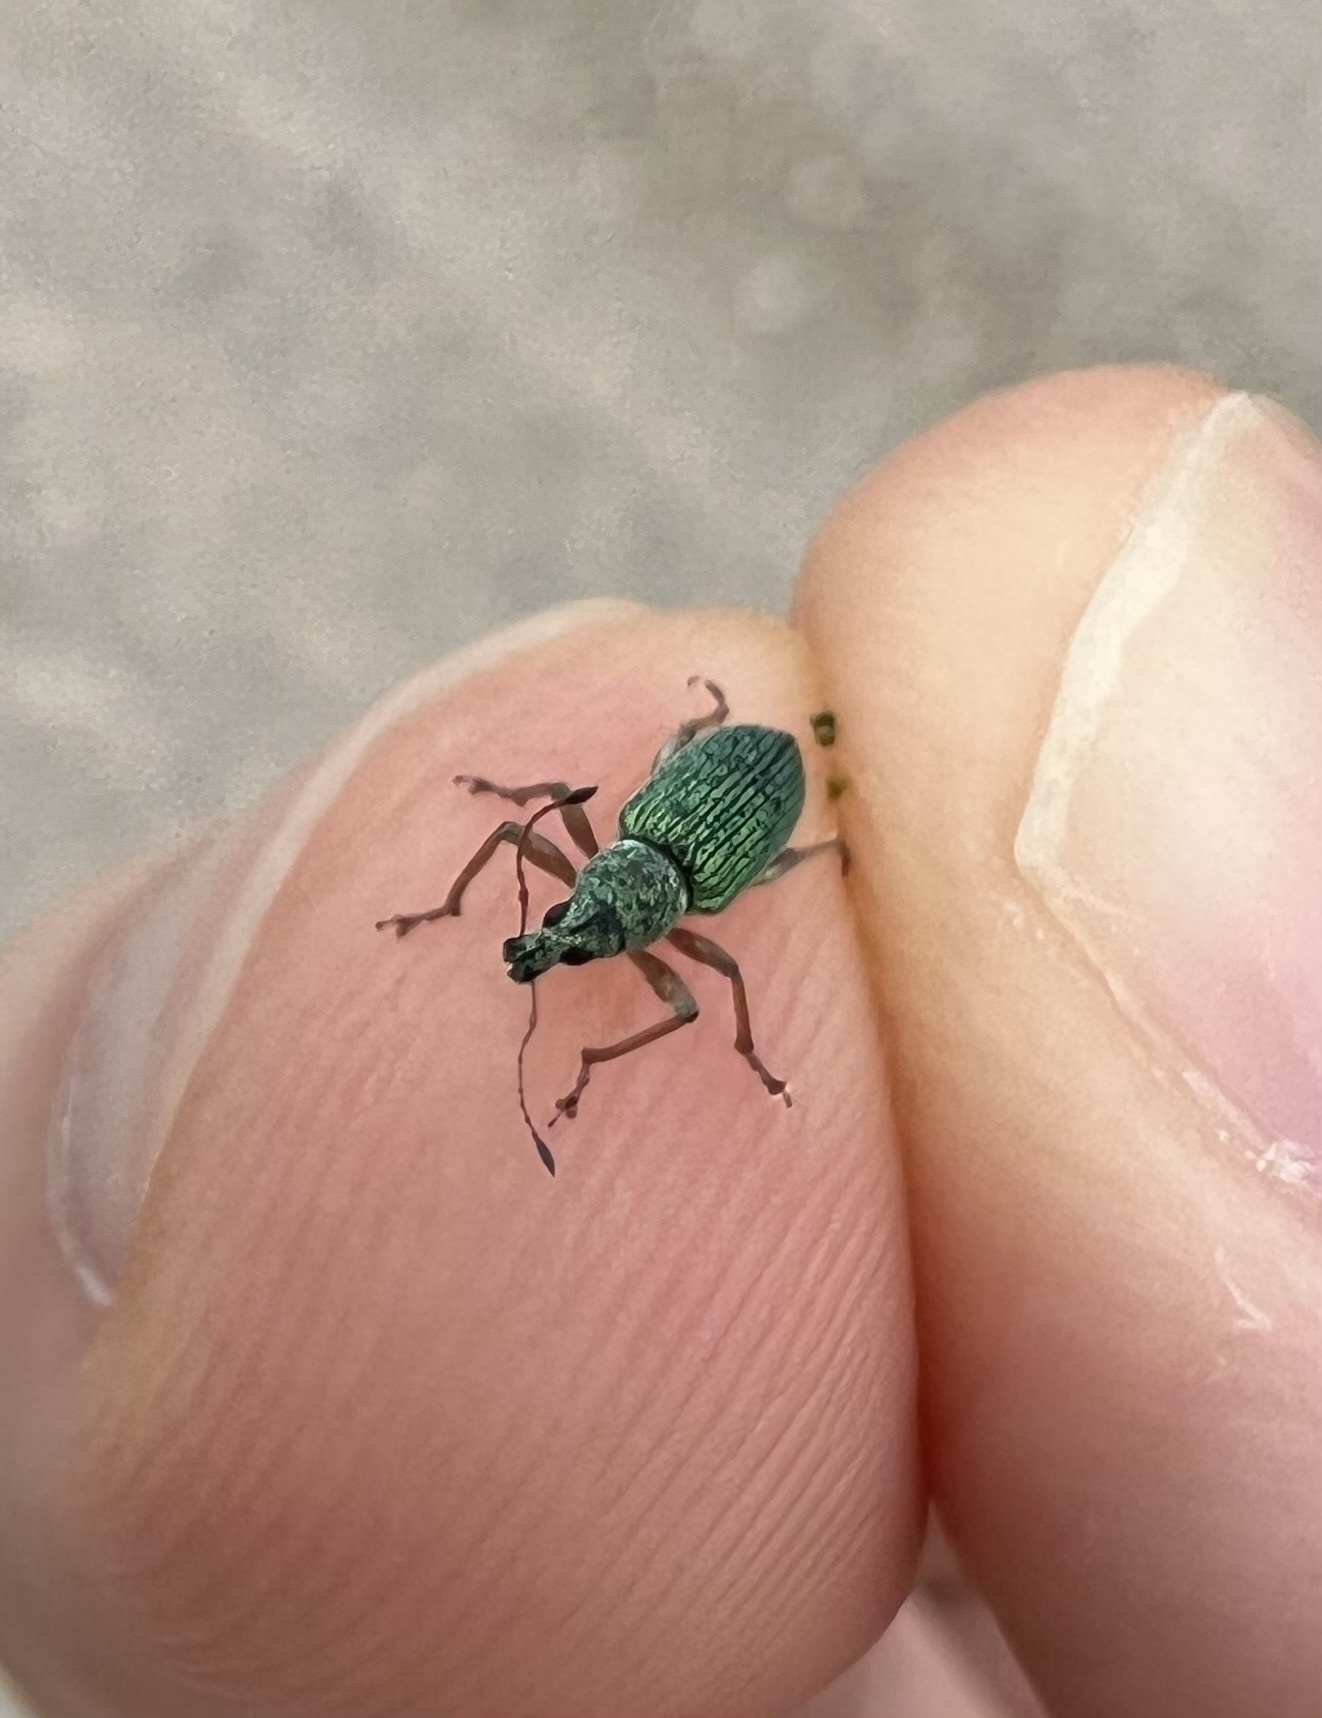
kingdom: Animalia
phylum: Arthropoda
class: Insecta
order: Coleoptera
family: Curculionidae
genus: Polydrusus
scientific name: Polydrusus formosus
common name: Weevil
